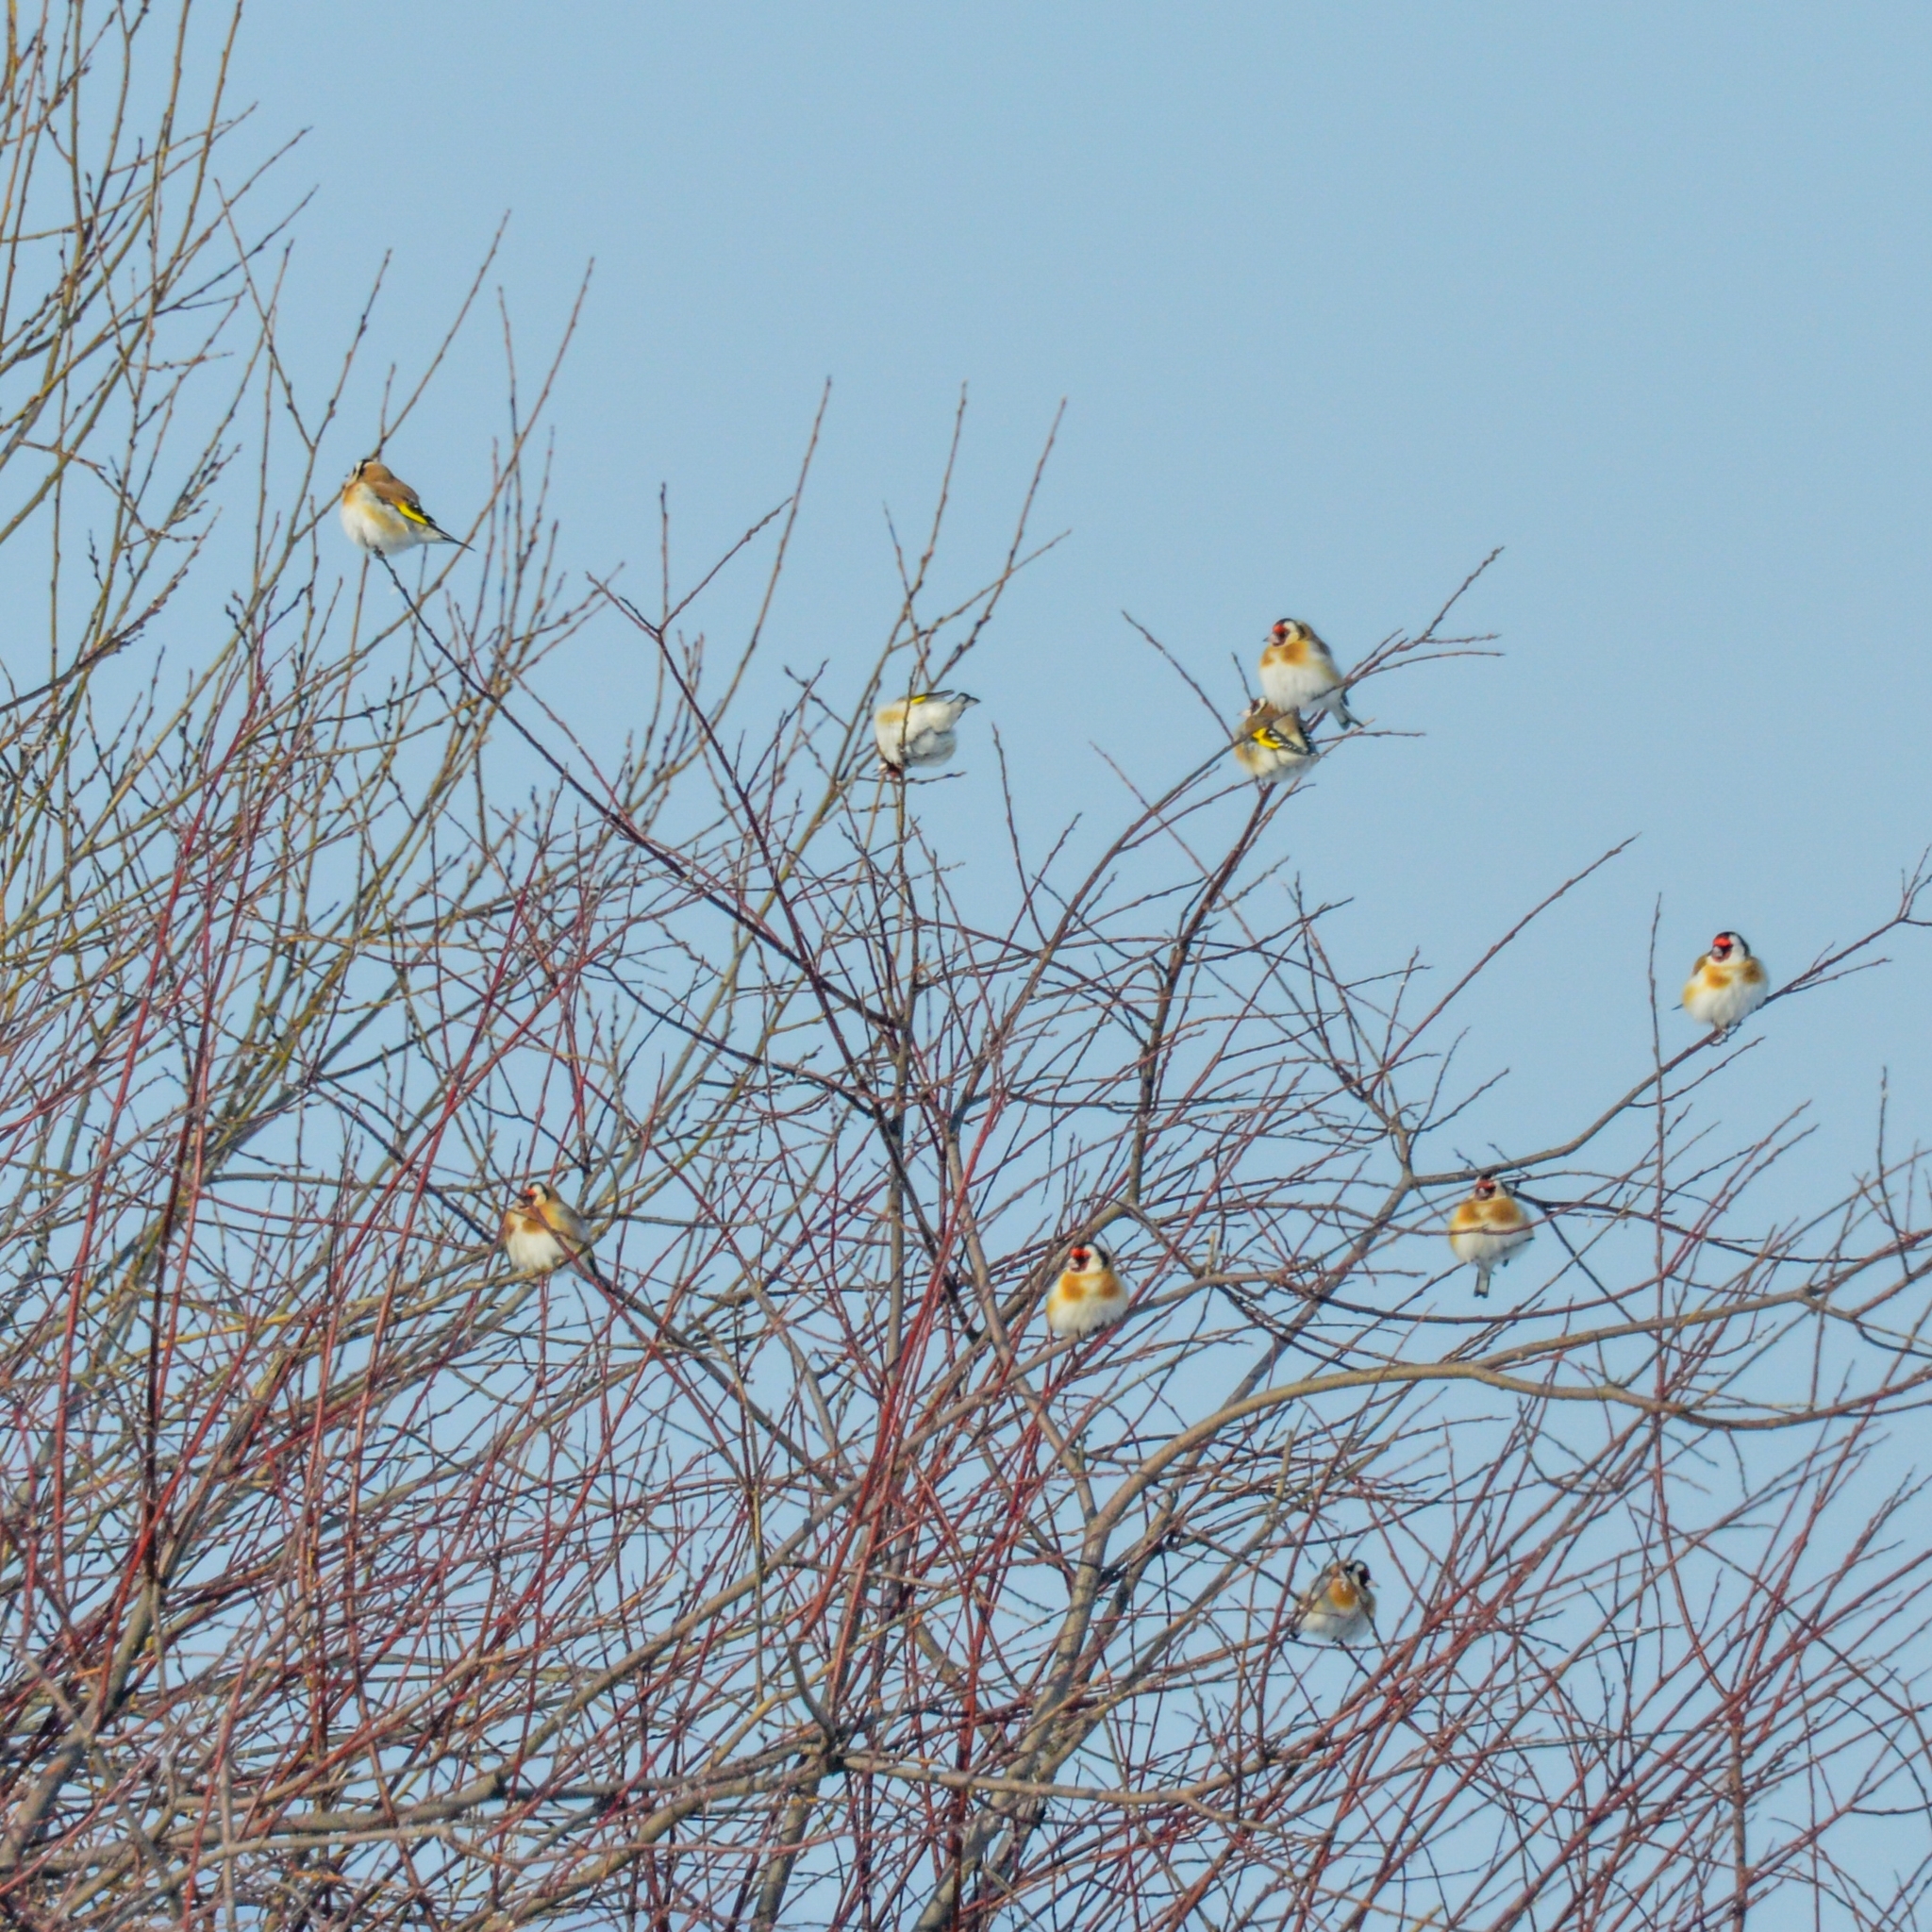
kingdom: Animalia
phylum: Chordata
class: Aves
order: Passeriformes
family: Fringillidae
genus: Carduelis
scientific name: Carduelis carduelis
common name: European goldfinch
